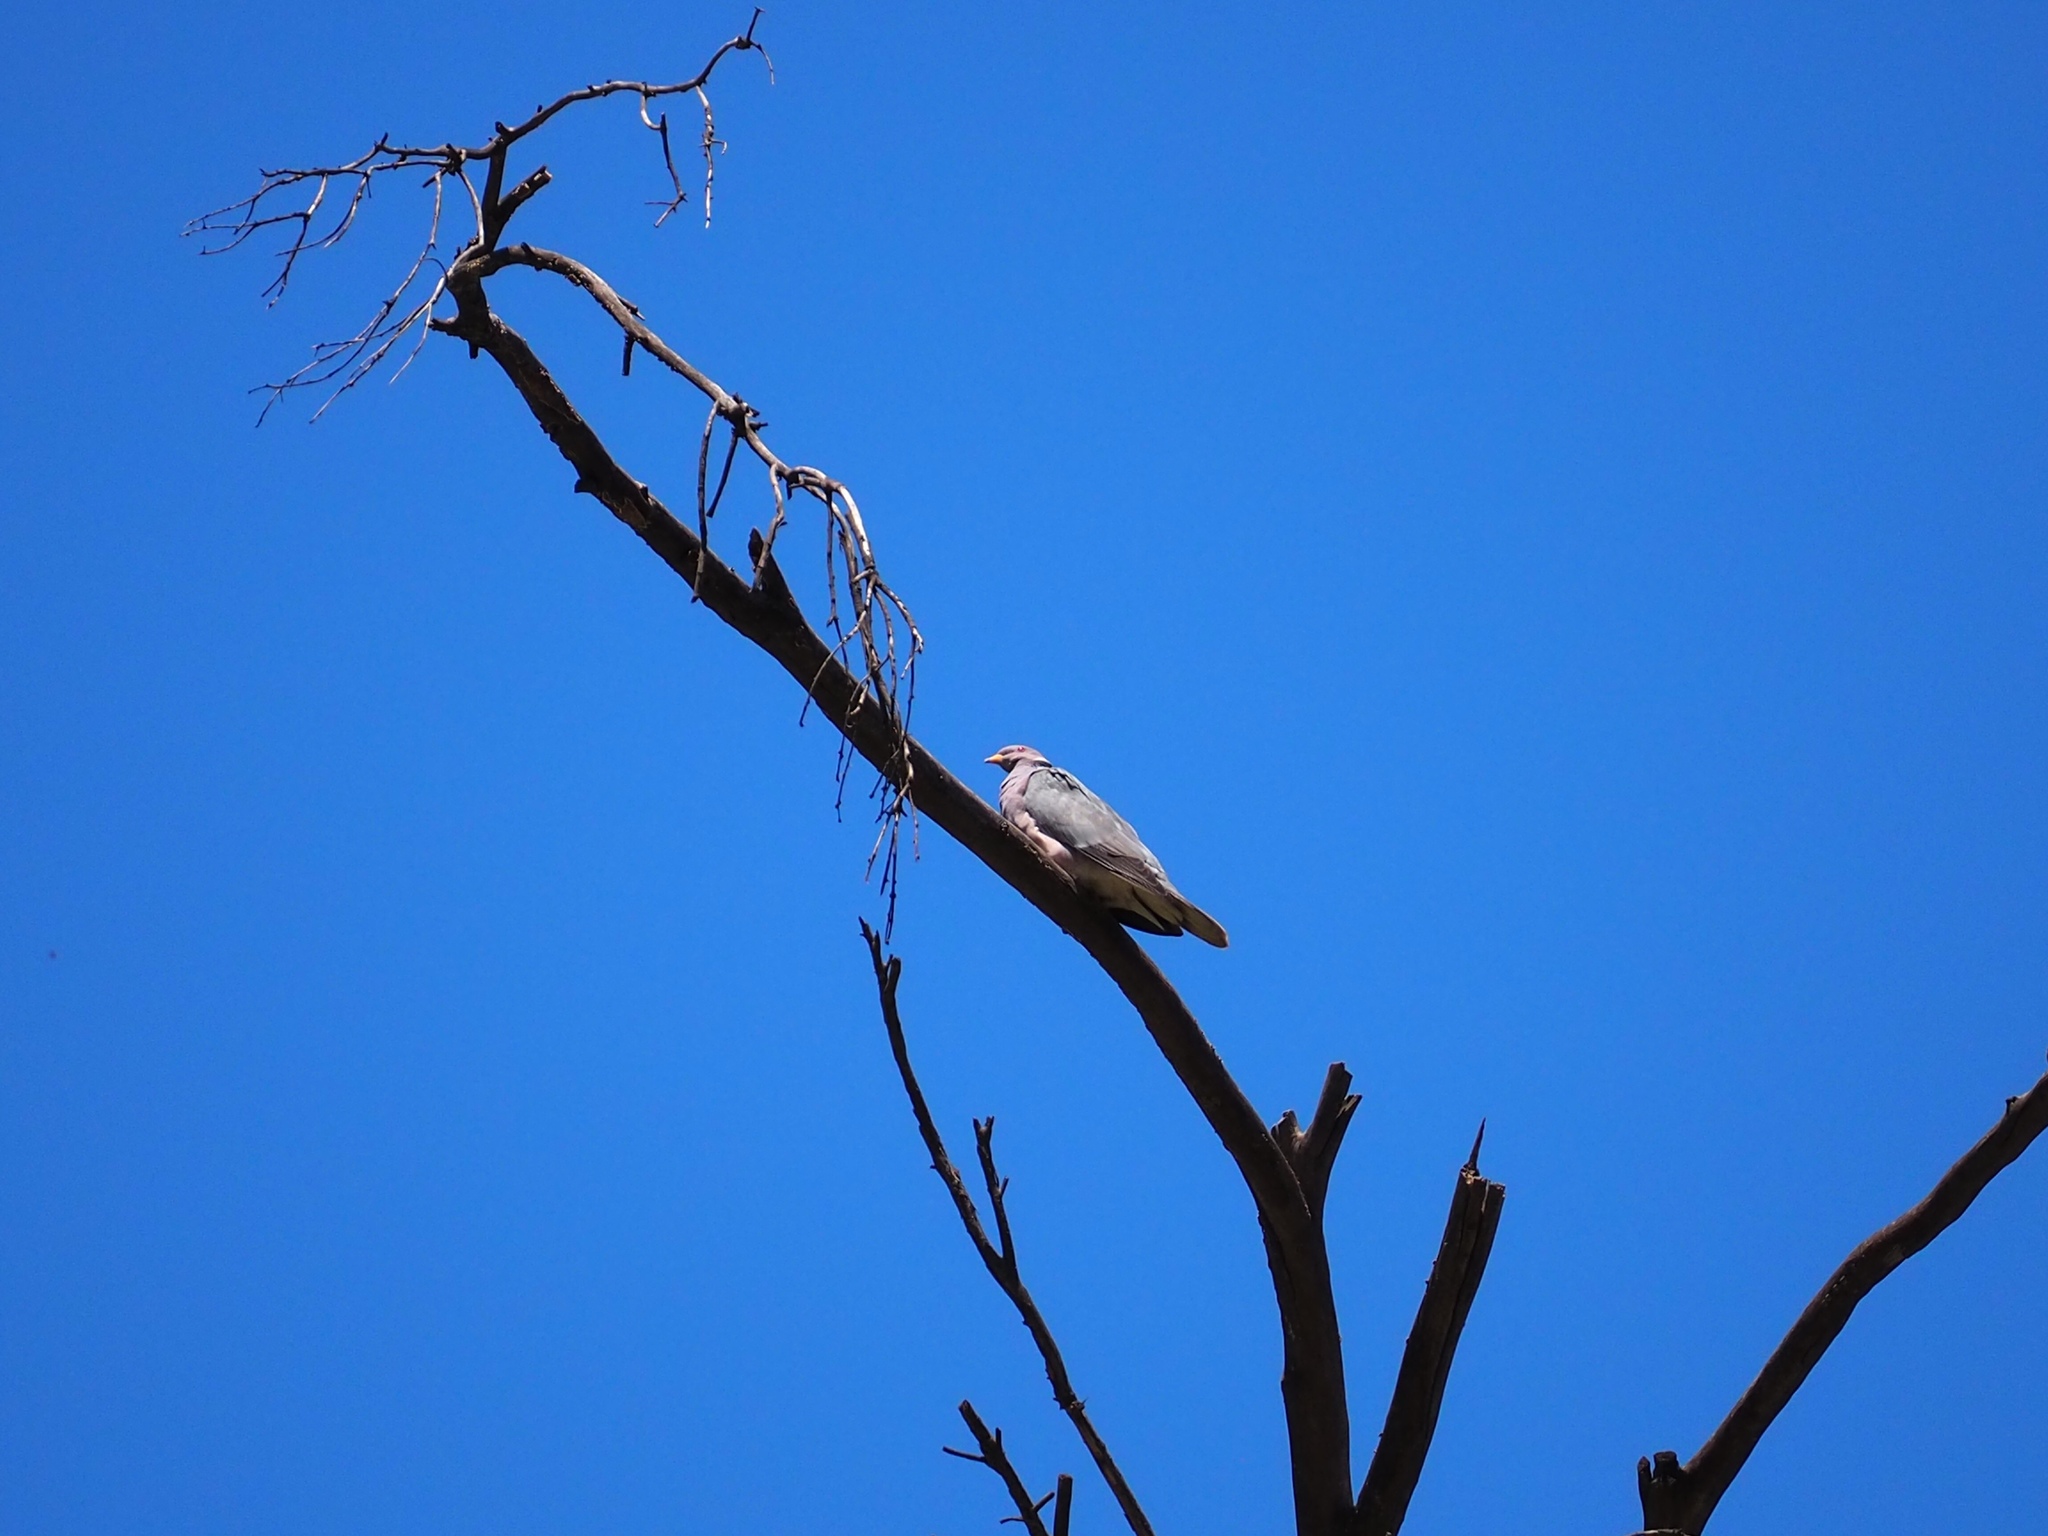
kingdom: Animalia
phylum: Chordata
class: Aves
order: Columbiformes
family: Columbidae
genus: Patagioenas
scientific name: Patagioenas fasciata
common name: Band-tailed pigeon
